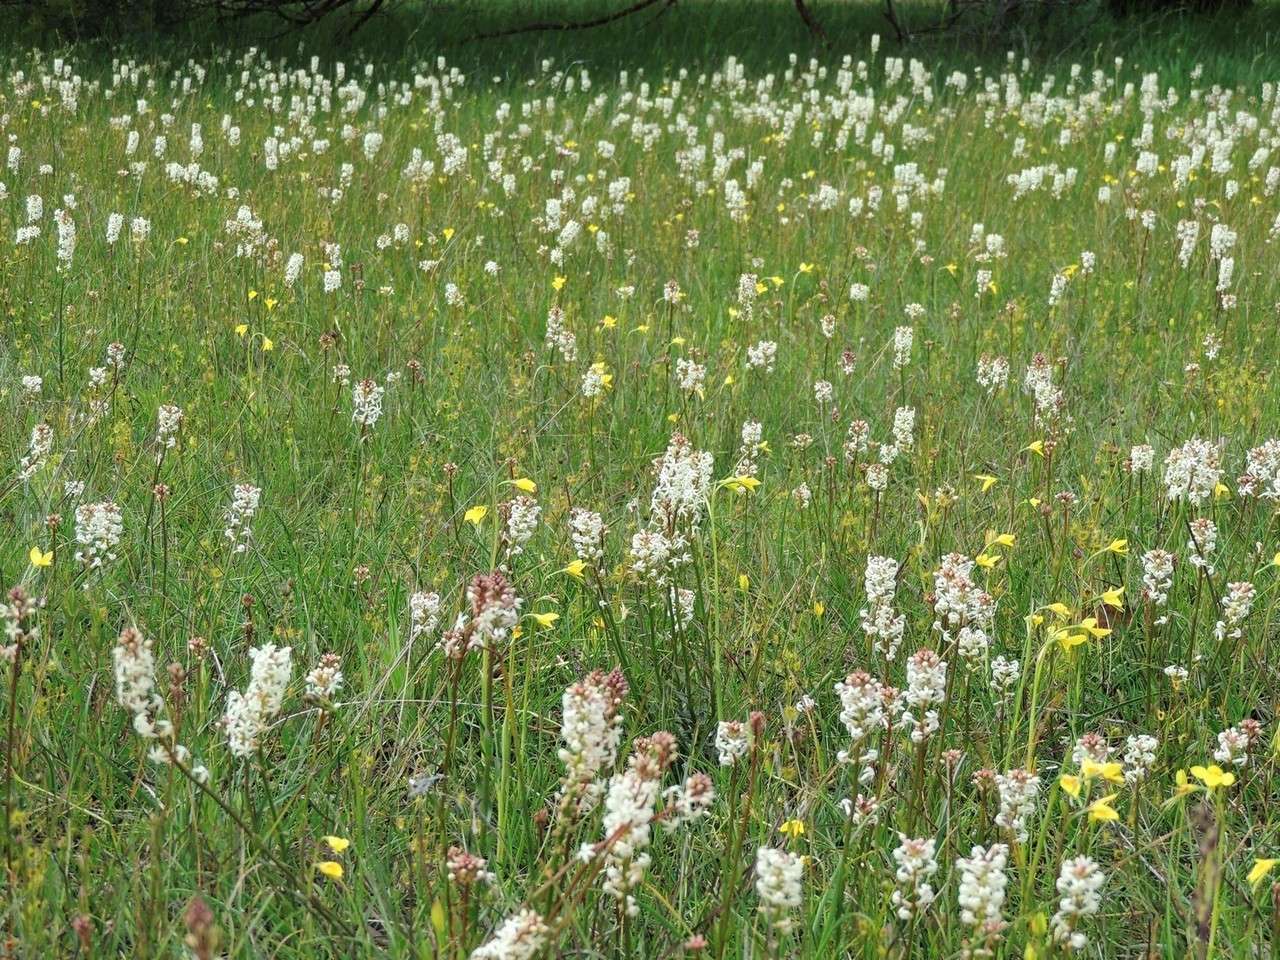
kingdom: Plantae
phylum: Tracheophyta
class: Liliopsida
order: Asparagales
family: Orchidaceae
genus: Diuris
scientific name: Diuris chryseopsis
